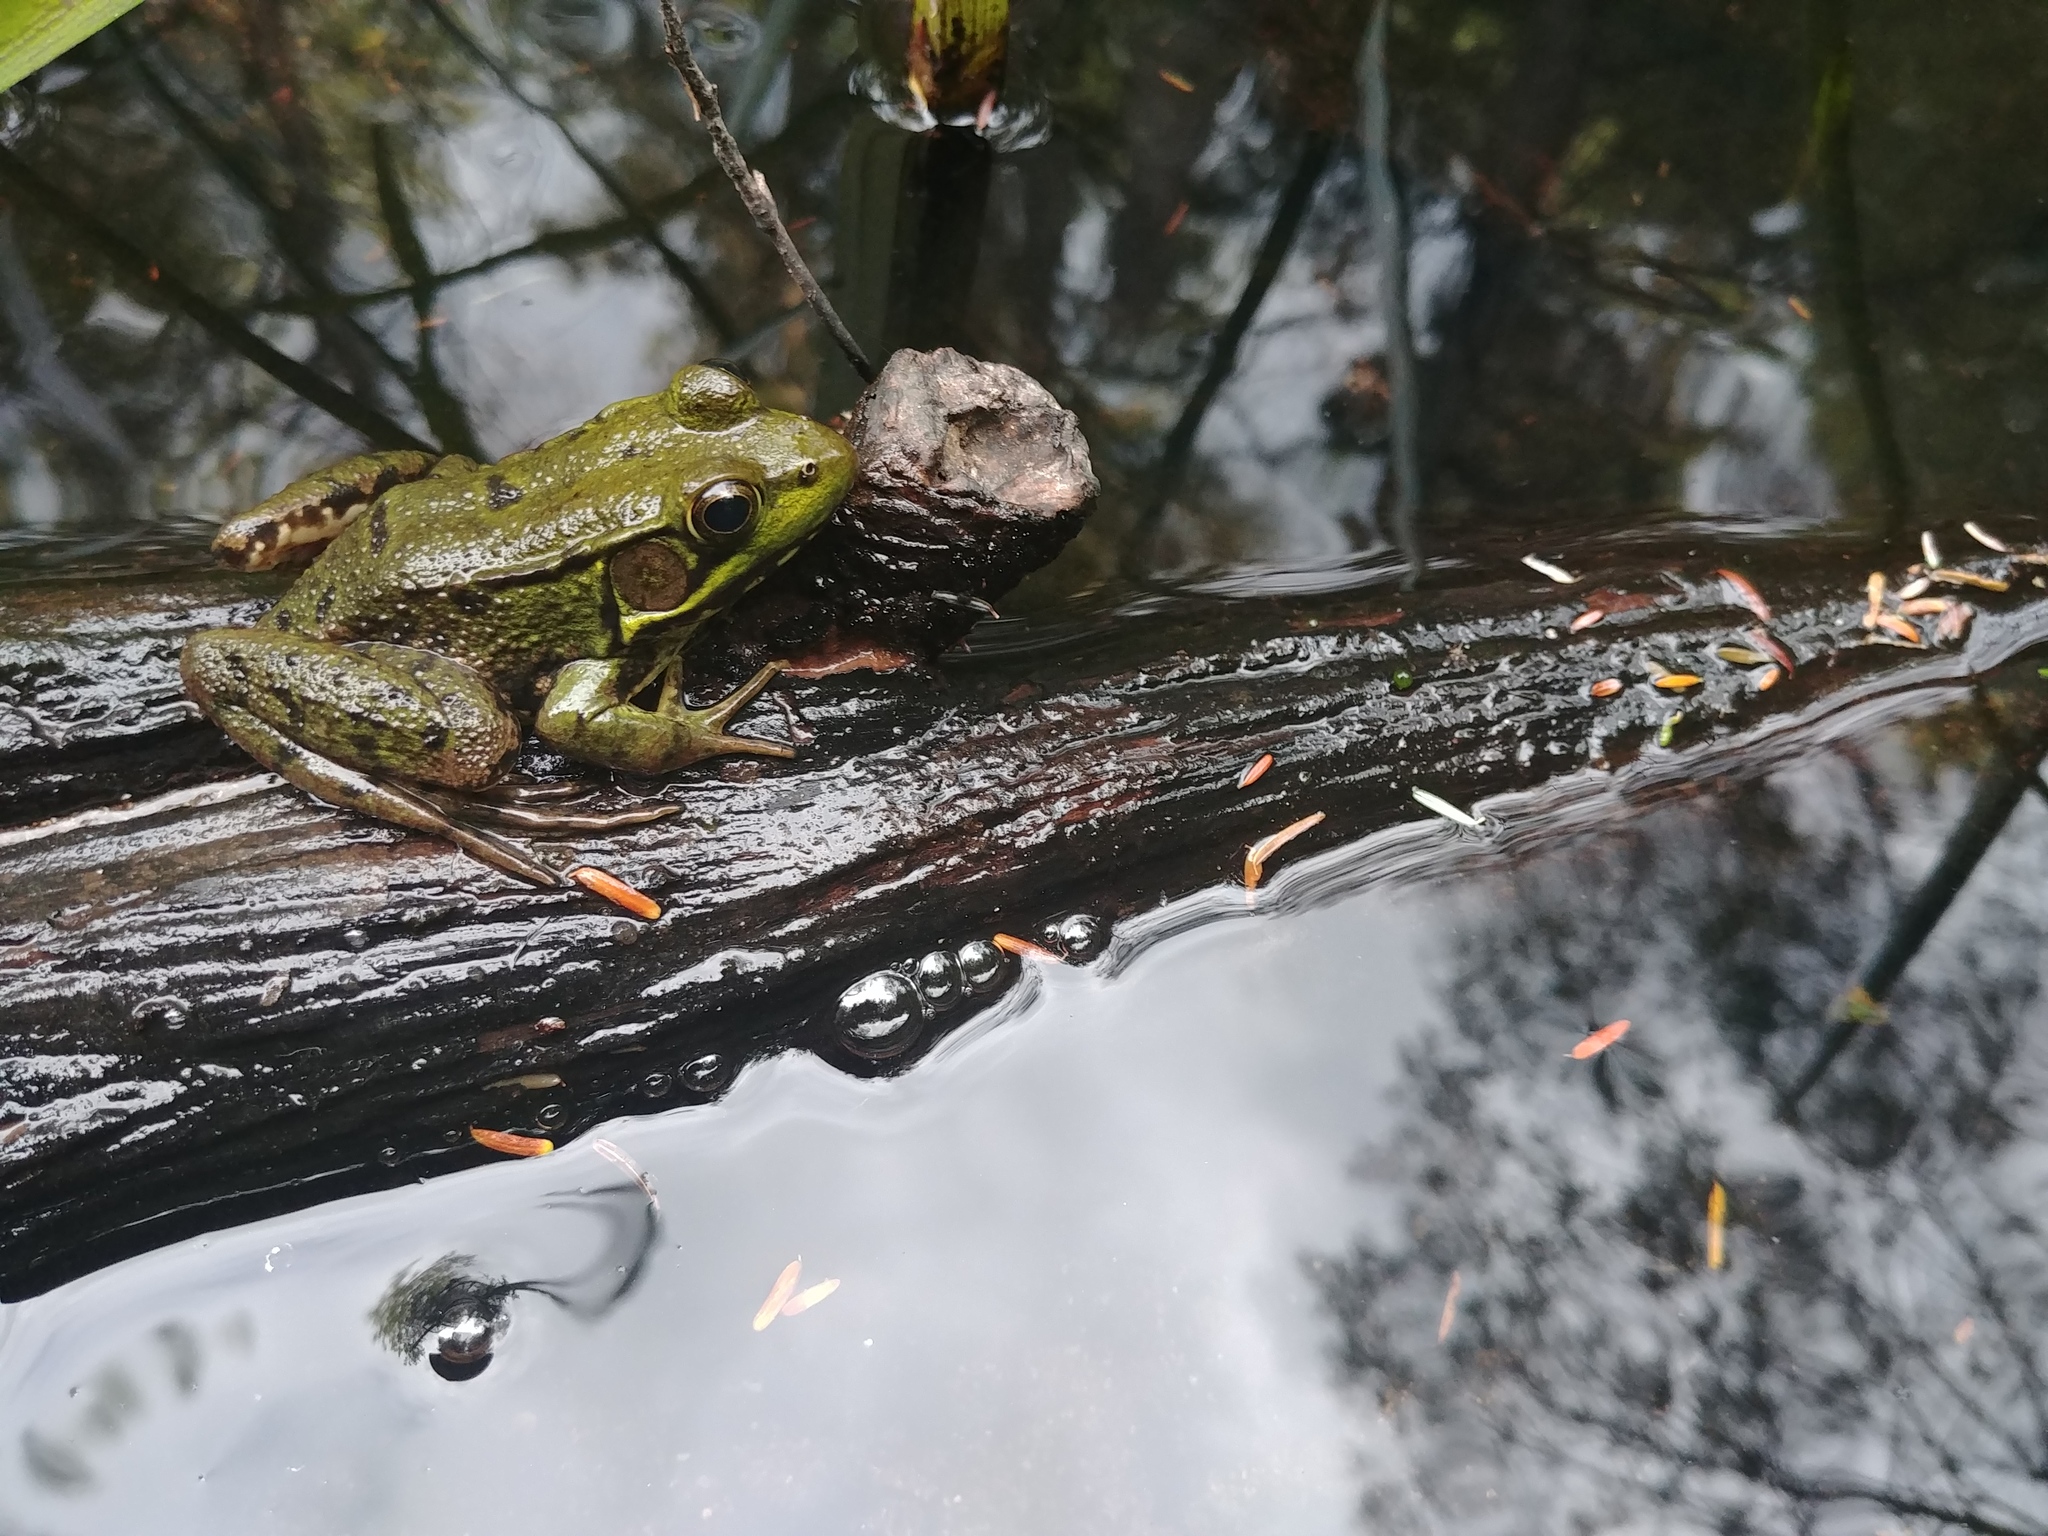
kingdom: Animalia
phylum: Chordata
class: Amphibia
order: Anura
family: Ranidae
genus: Lithobates
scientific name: Lithobates clamitans
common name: Green frog
